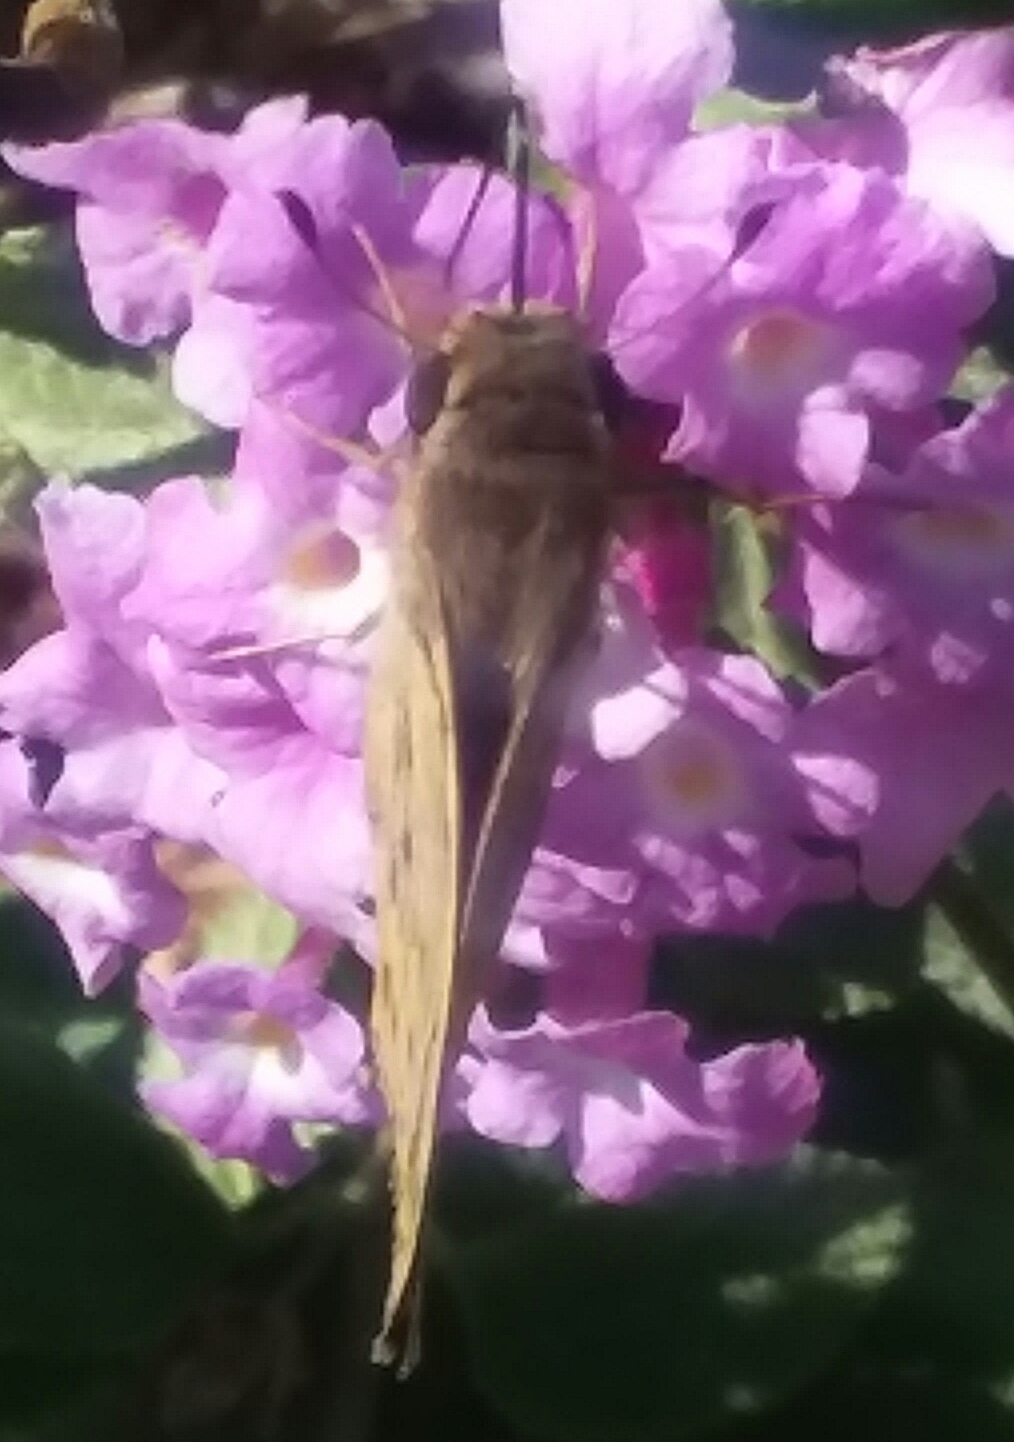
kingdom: Animalia
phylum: Arthropoda
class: Insecta
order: Lepidoptera
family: Hesperiidae
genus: Hylephila
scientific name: Hylephila phyleus
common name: Fiery skipper
